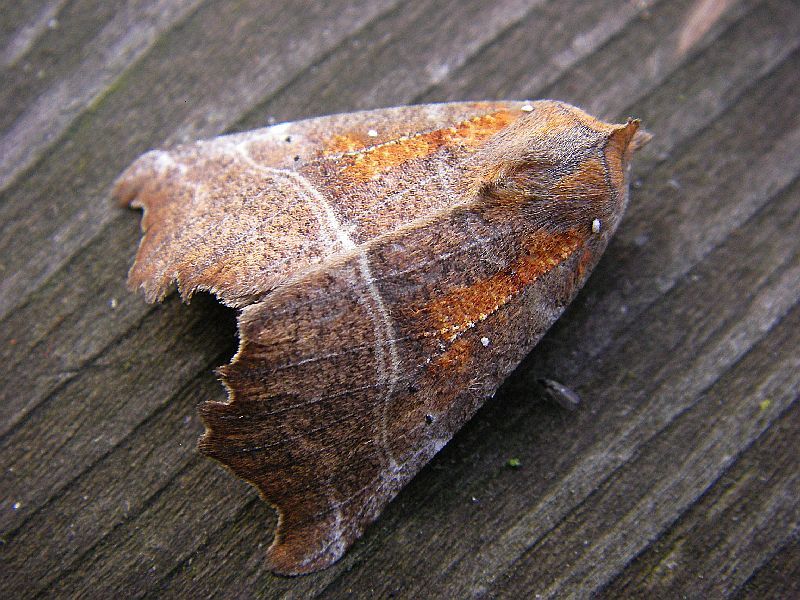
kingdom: Animalia
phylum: Arthropoda
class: Insecta
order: Lepidoptera
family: Erebidae
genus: Scoliopteryx
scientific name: Scoliopteryx libatrix
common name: Herald
